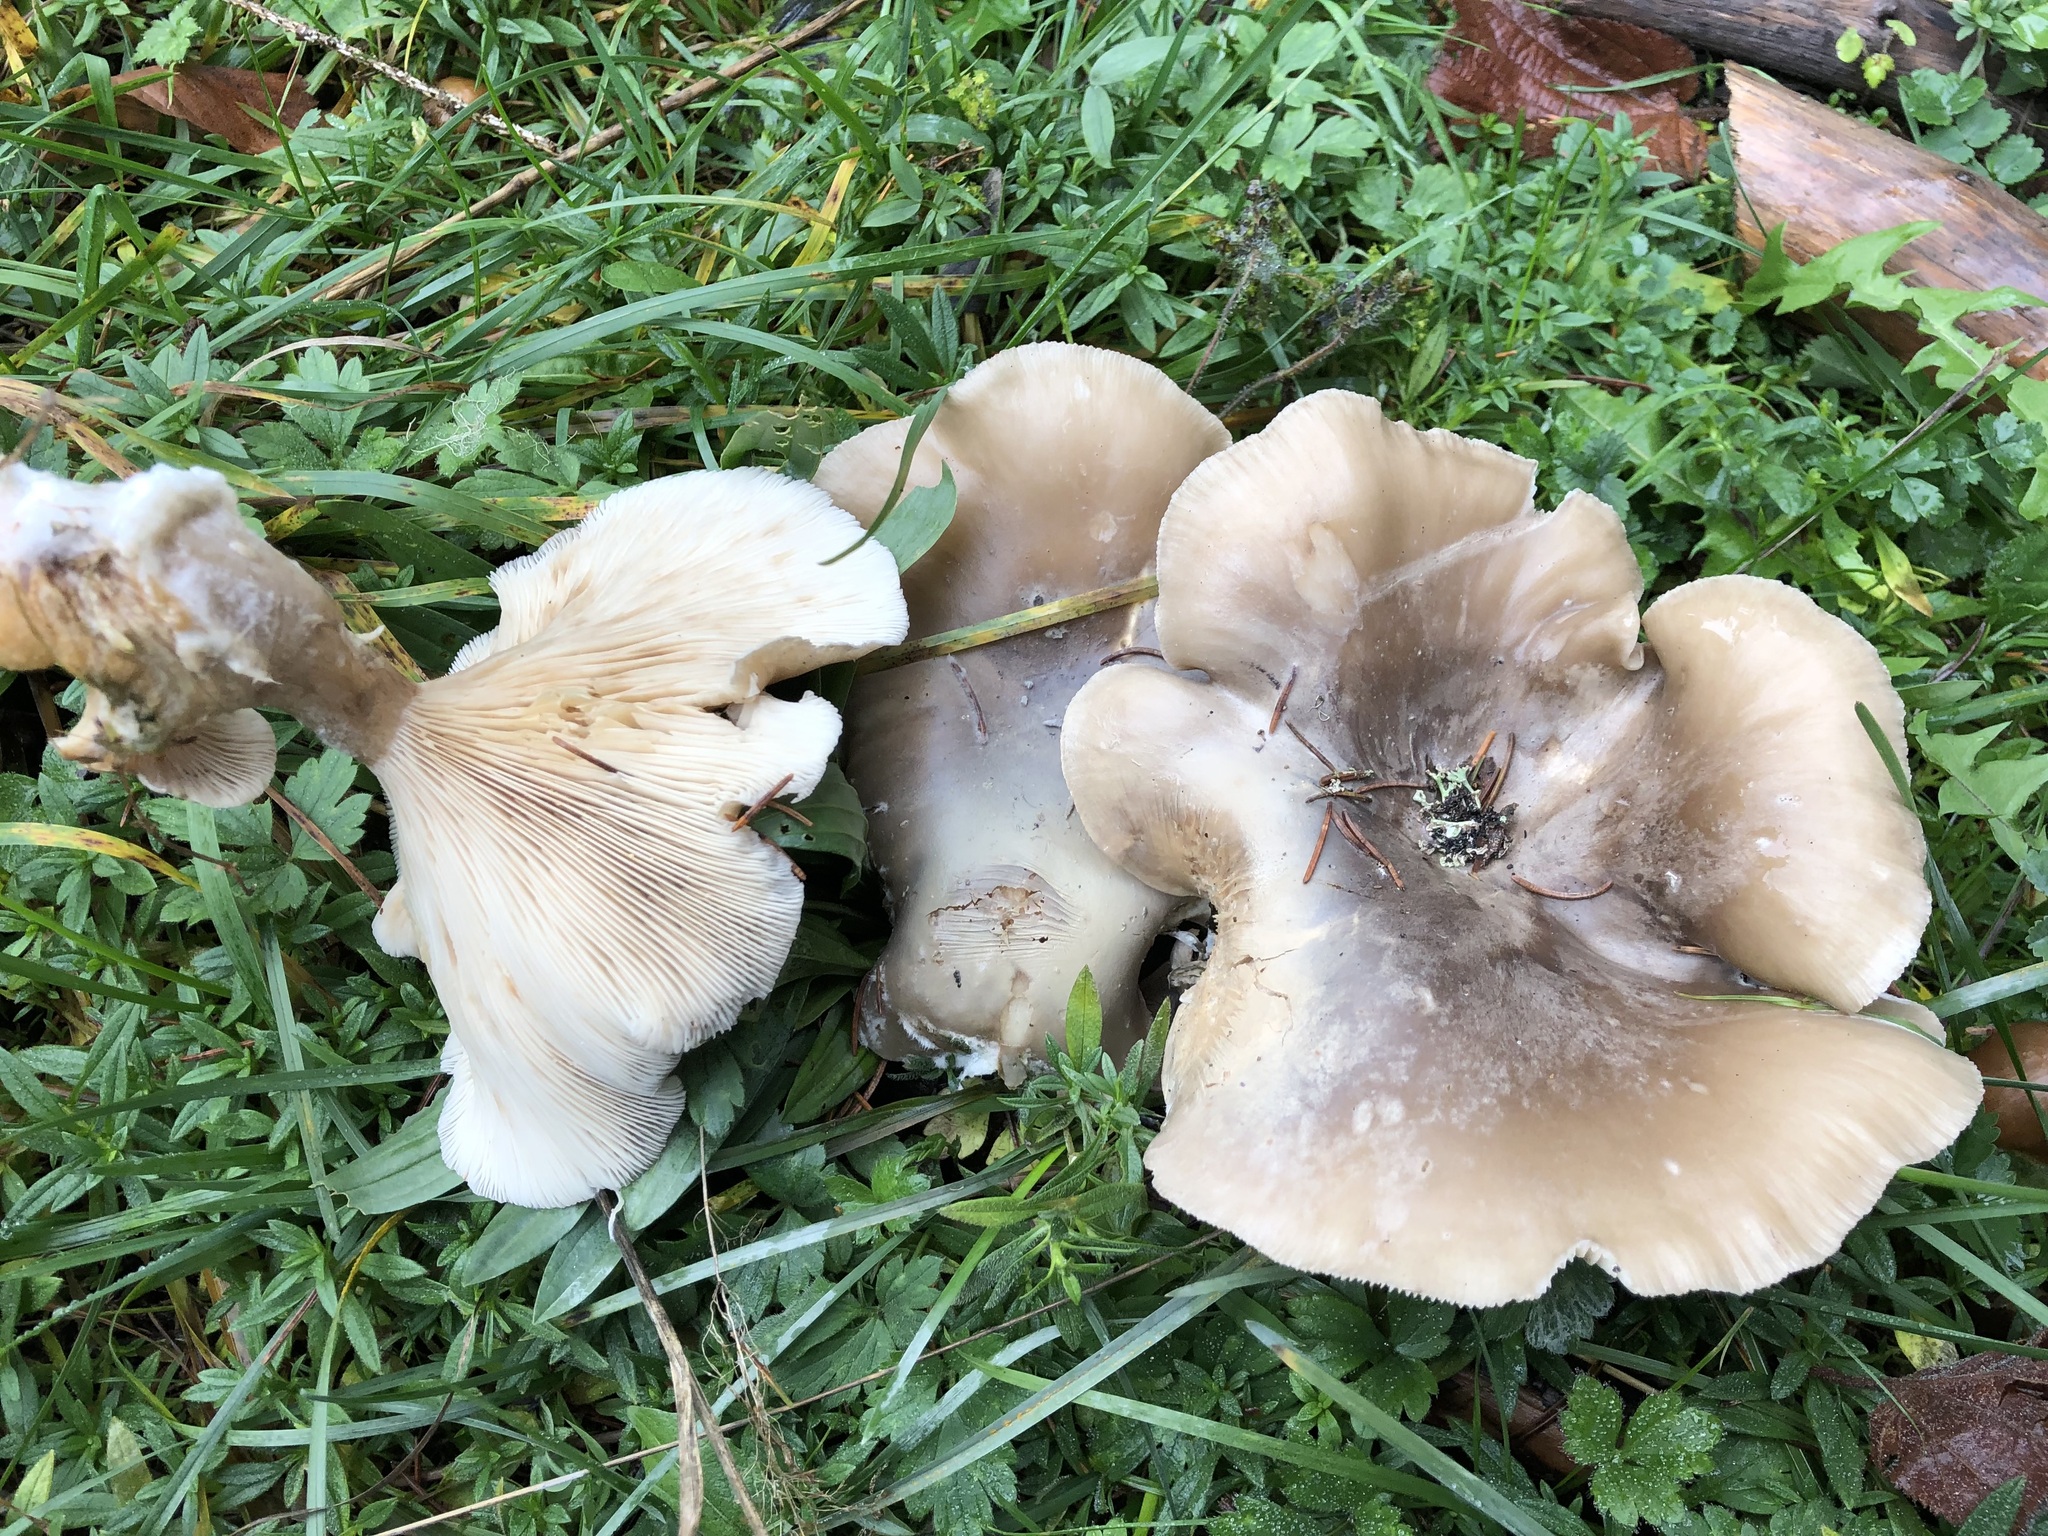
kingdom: Fungi
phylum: Basidiomycota
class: Agaricomycetes
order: Agaricales
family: Tricholomataceae
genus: Clitocybe
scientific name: Clitocybe nebularis
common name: Clouded agaric
